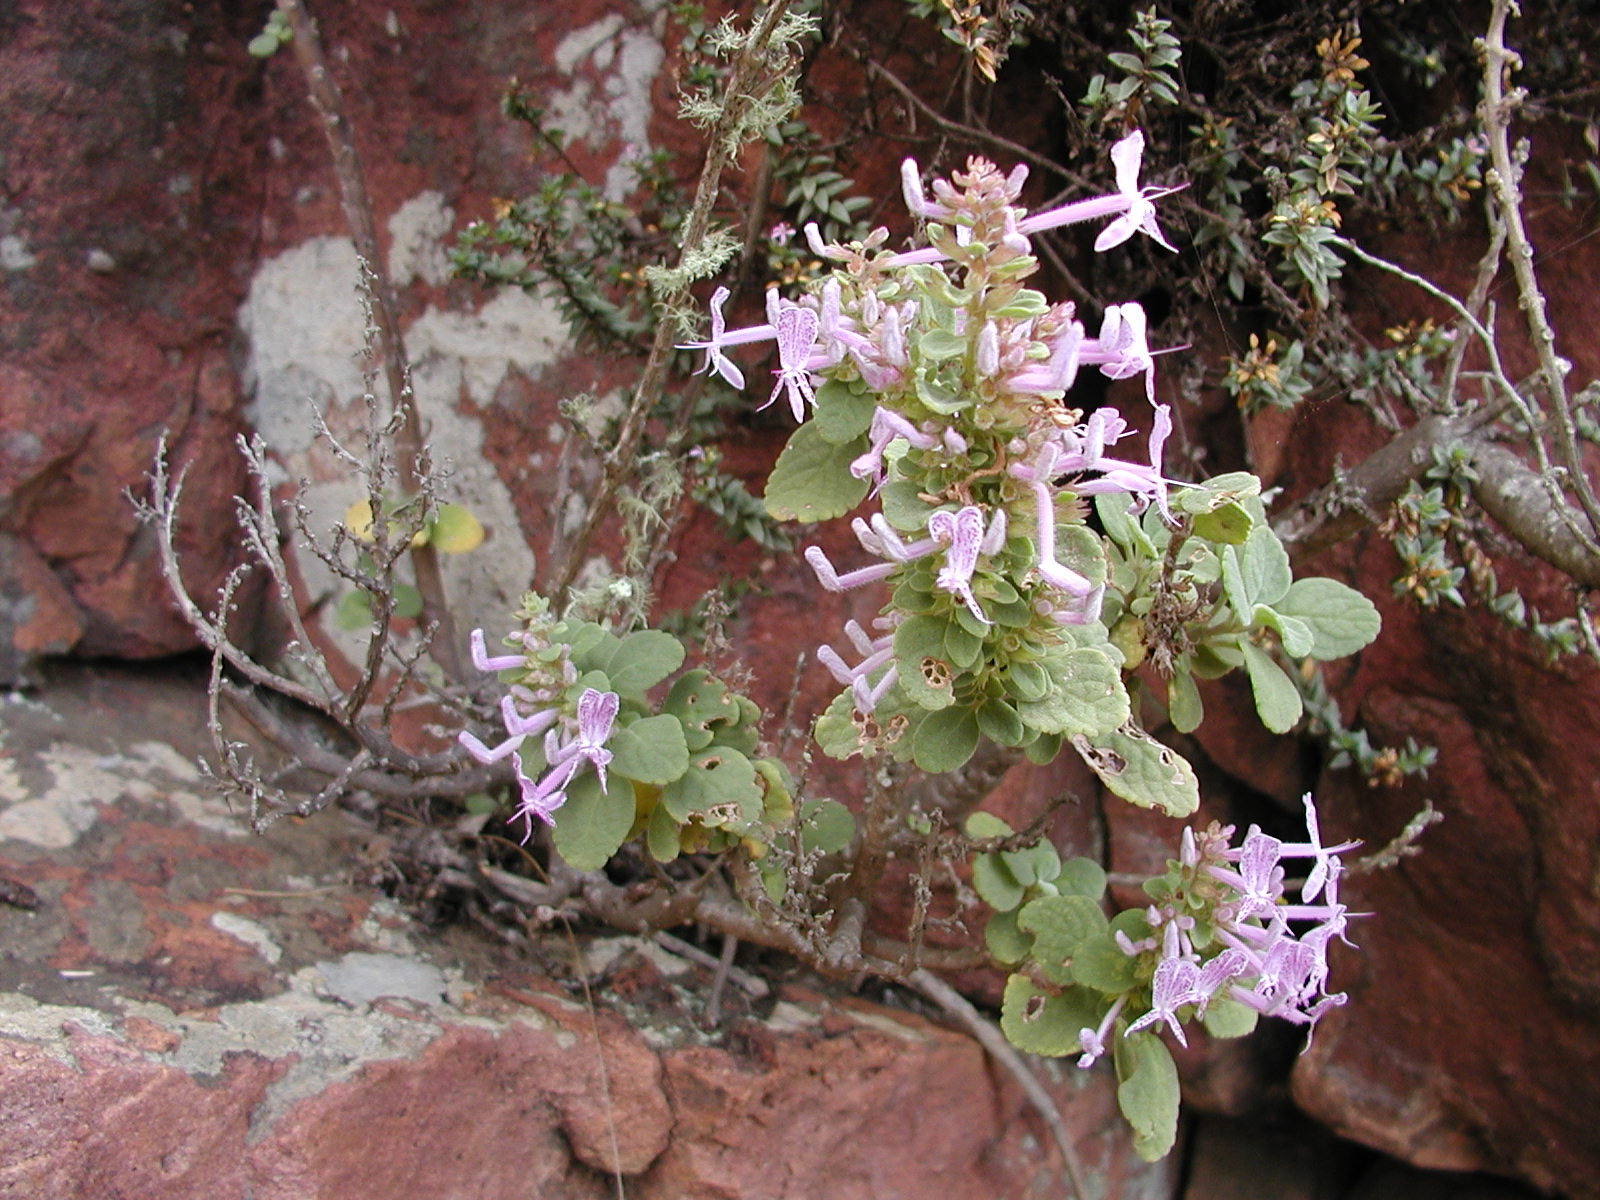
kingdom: Plantae
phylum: Tracheophyta
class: Magnoliopsida
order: Lamiales
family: Lamiaceae
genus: Thorncroftia
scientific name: Thorncroftia succulenta
